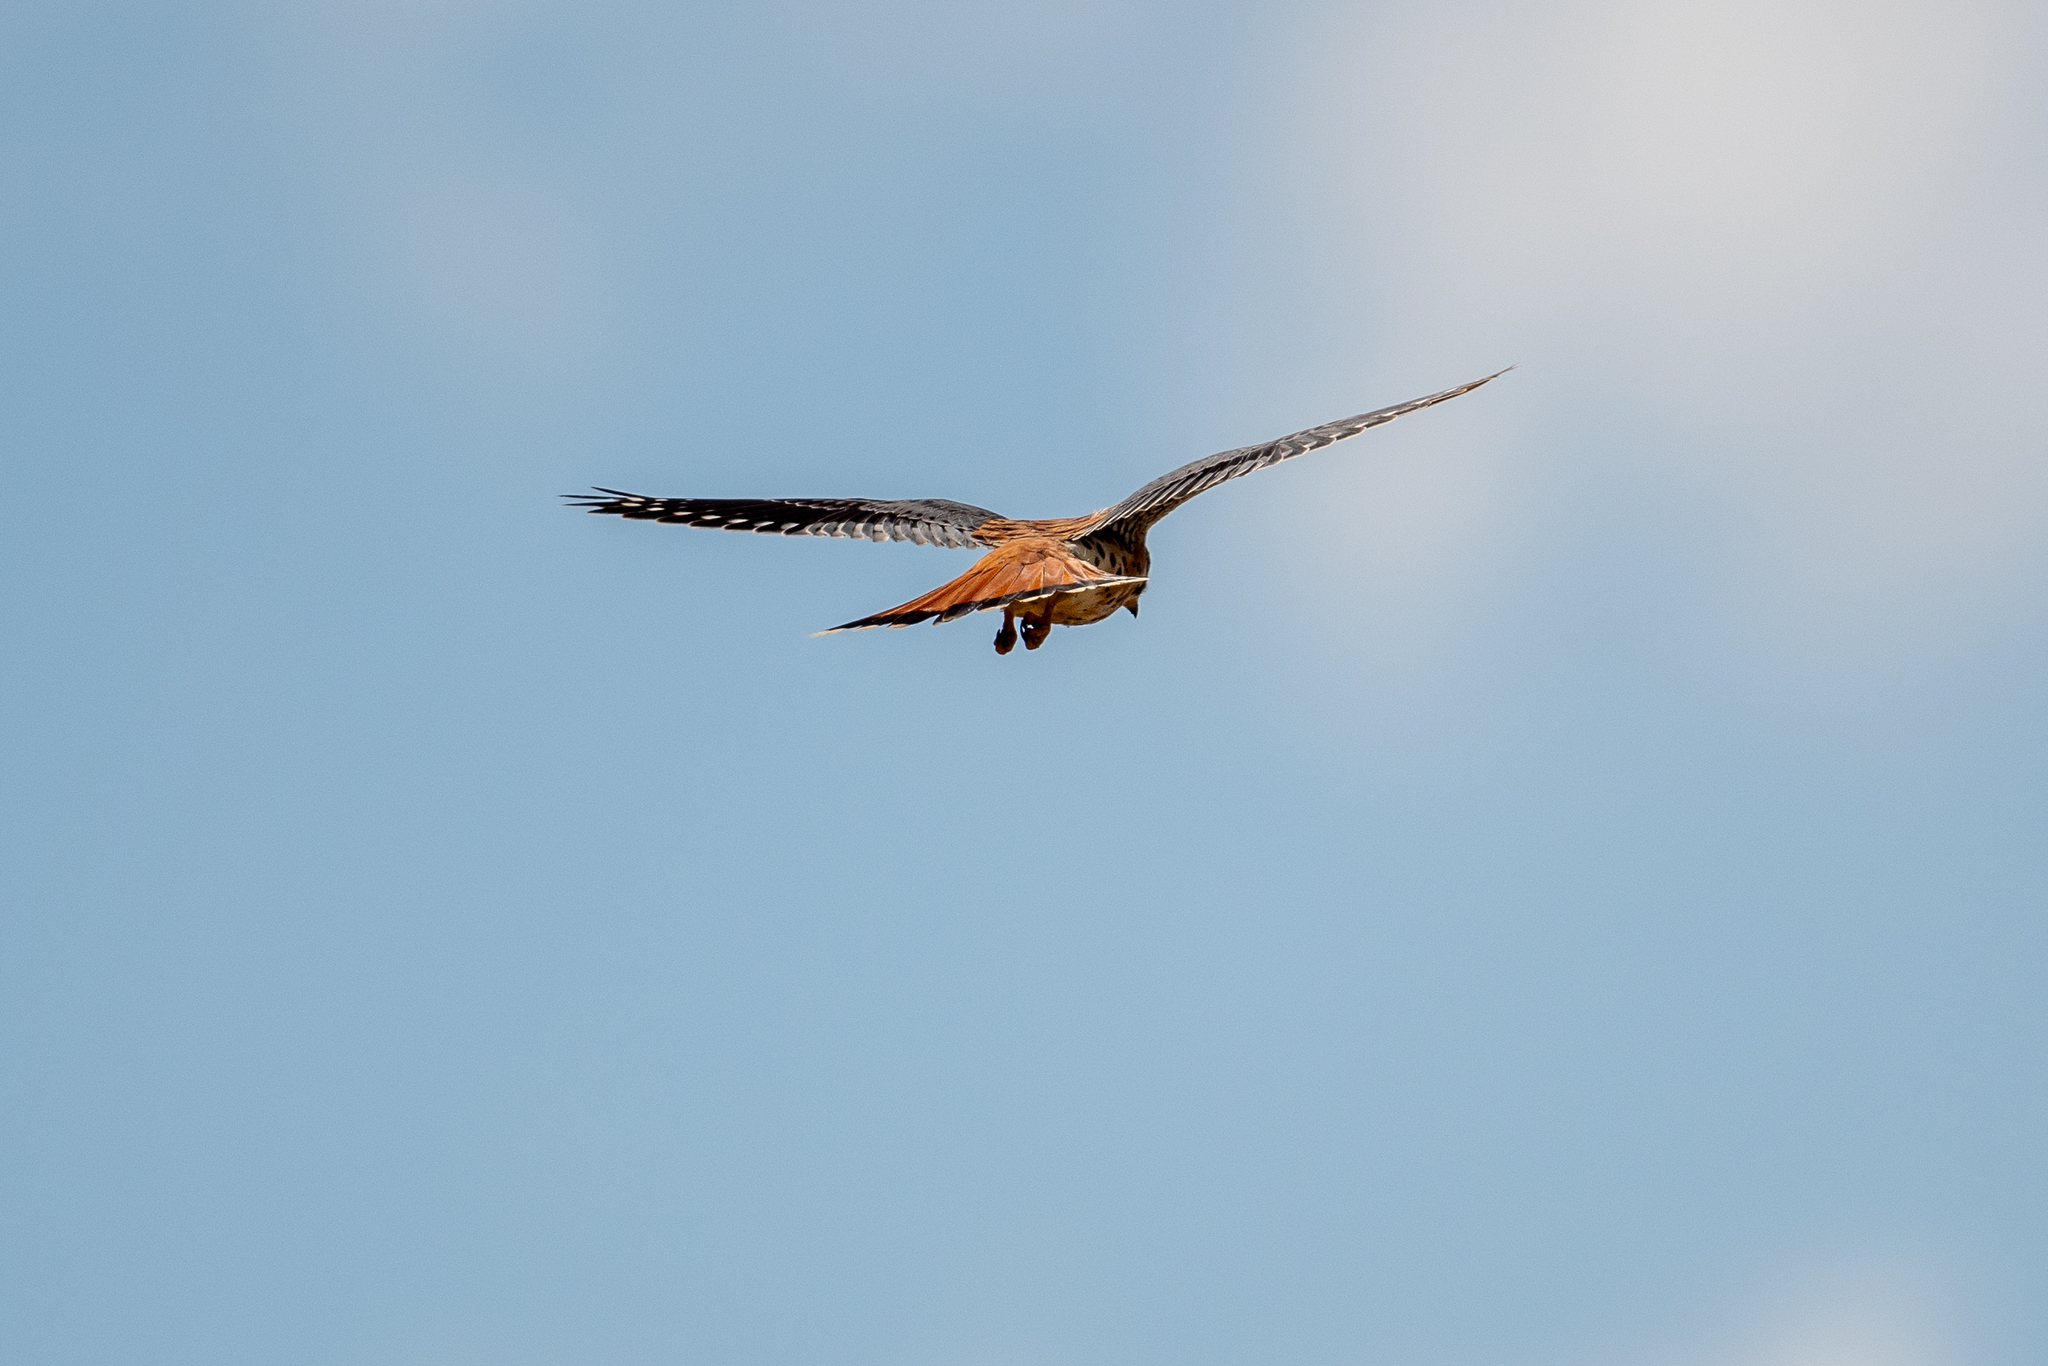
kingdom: Animalia
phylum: Chordata
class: Aves
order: Falconiformes
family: Falconidae
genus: Falco
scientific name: Falco sparverius
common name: American kestrel
